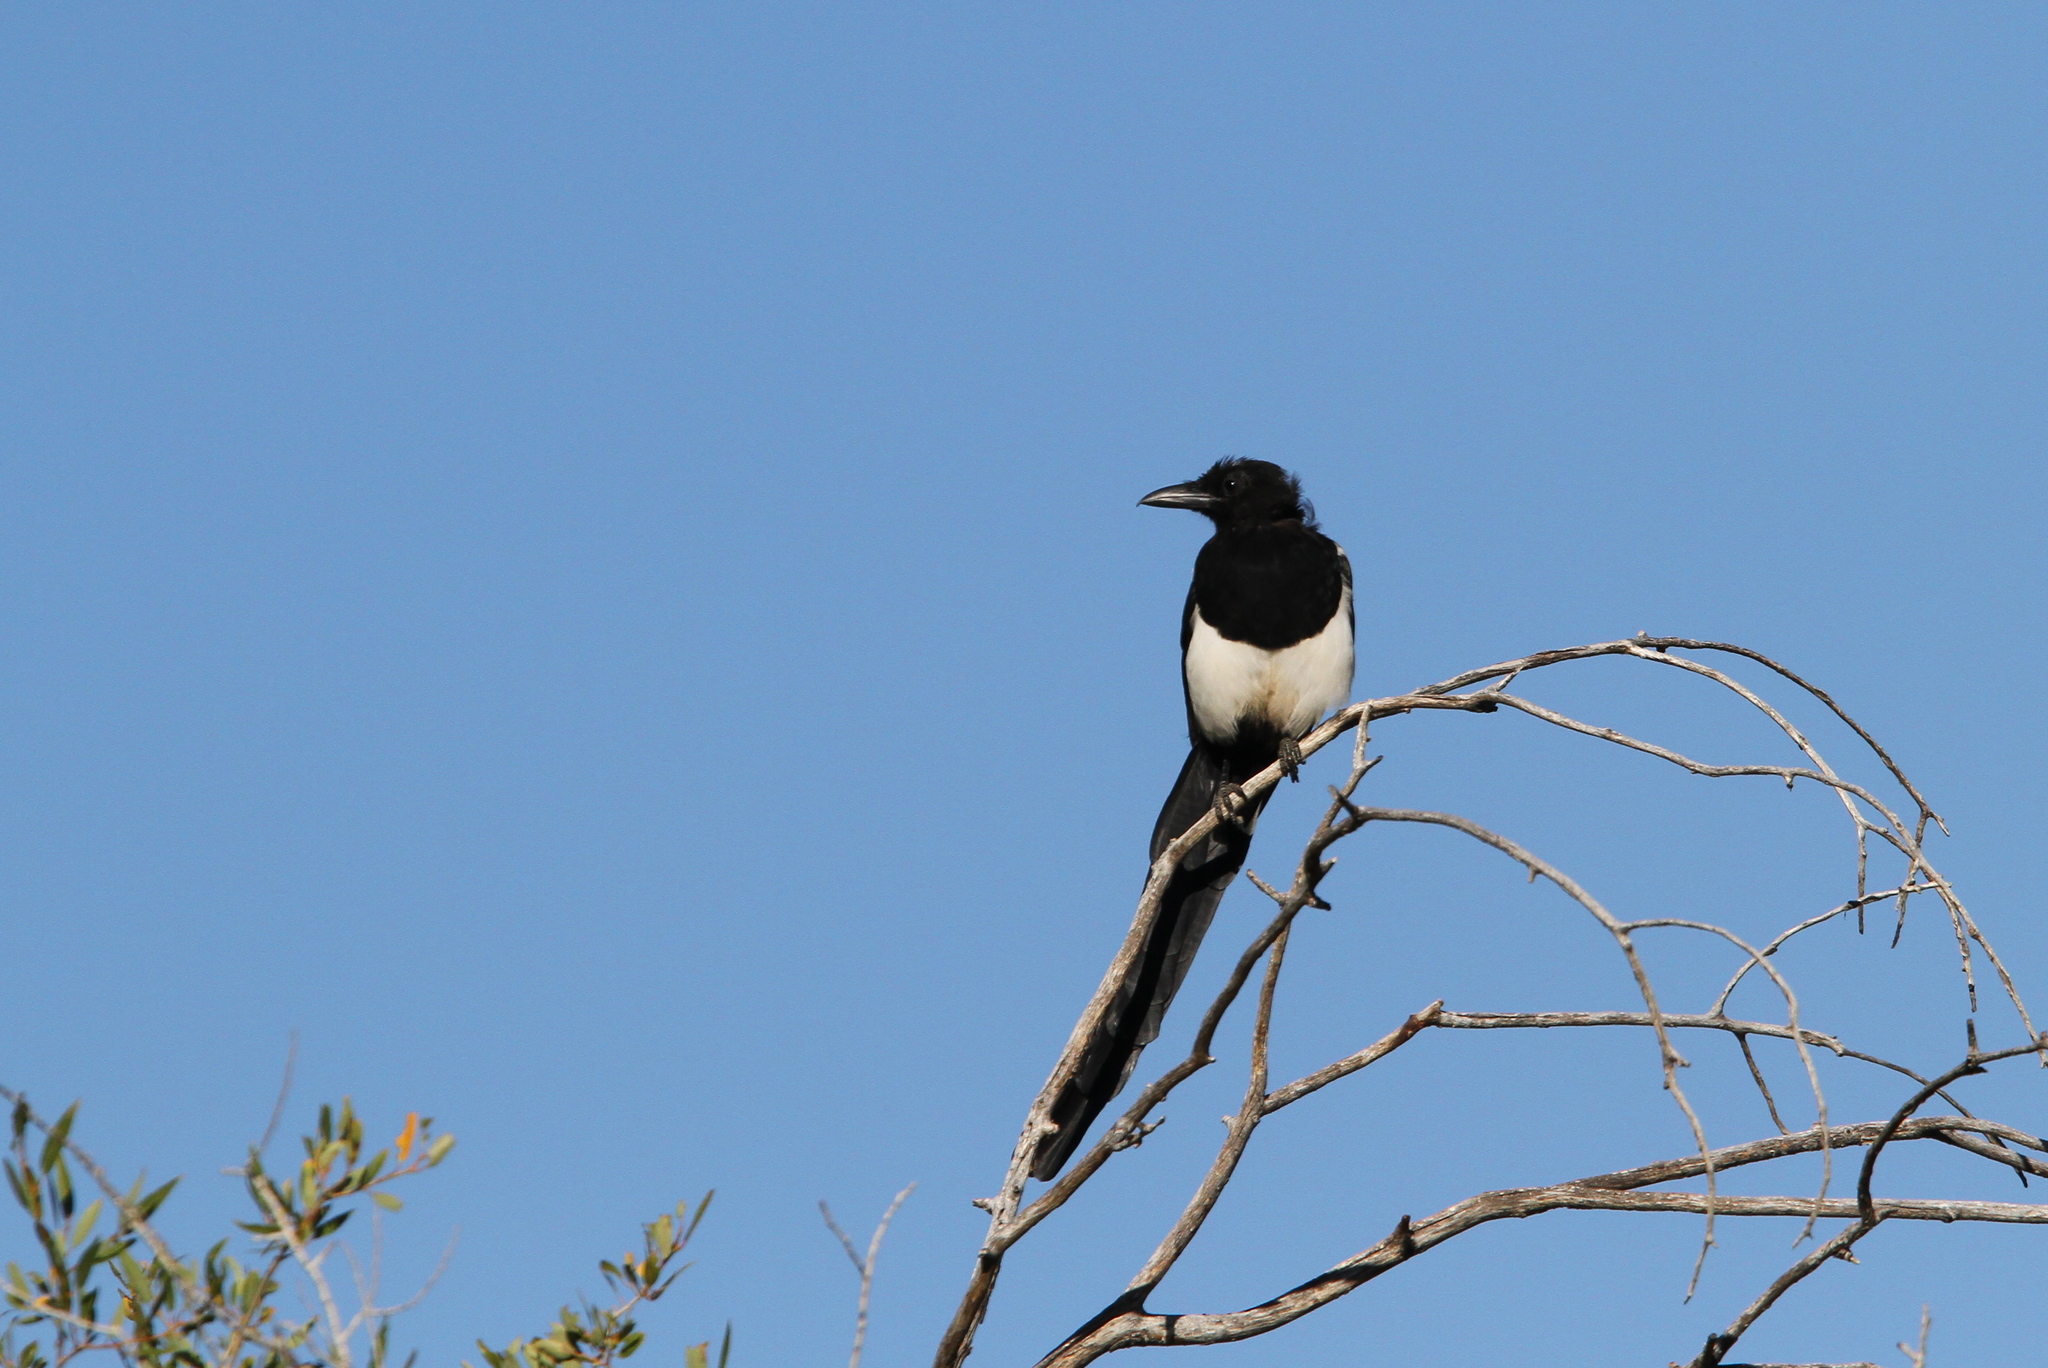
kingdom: Animalia
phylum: Chordata
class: Aves
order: Passeriformes
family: Corvidae
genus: Pica
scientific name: Pica hudsonia
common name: Black-billed magpie
